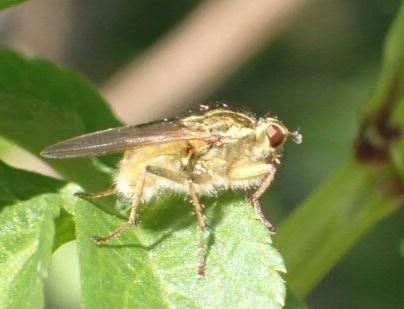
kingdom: Animalia
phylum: Arthropoda
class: Insecta
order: Diptera
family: Scathophagidae
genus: Scathophaga
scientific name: Scathophaga stercoraria
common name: Yellow dung fly
